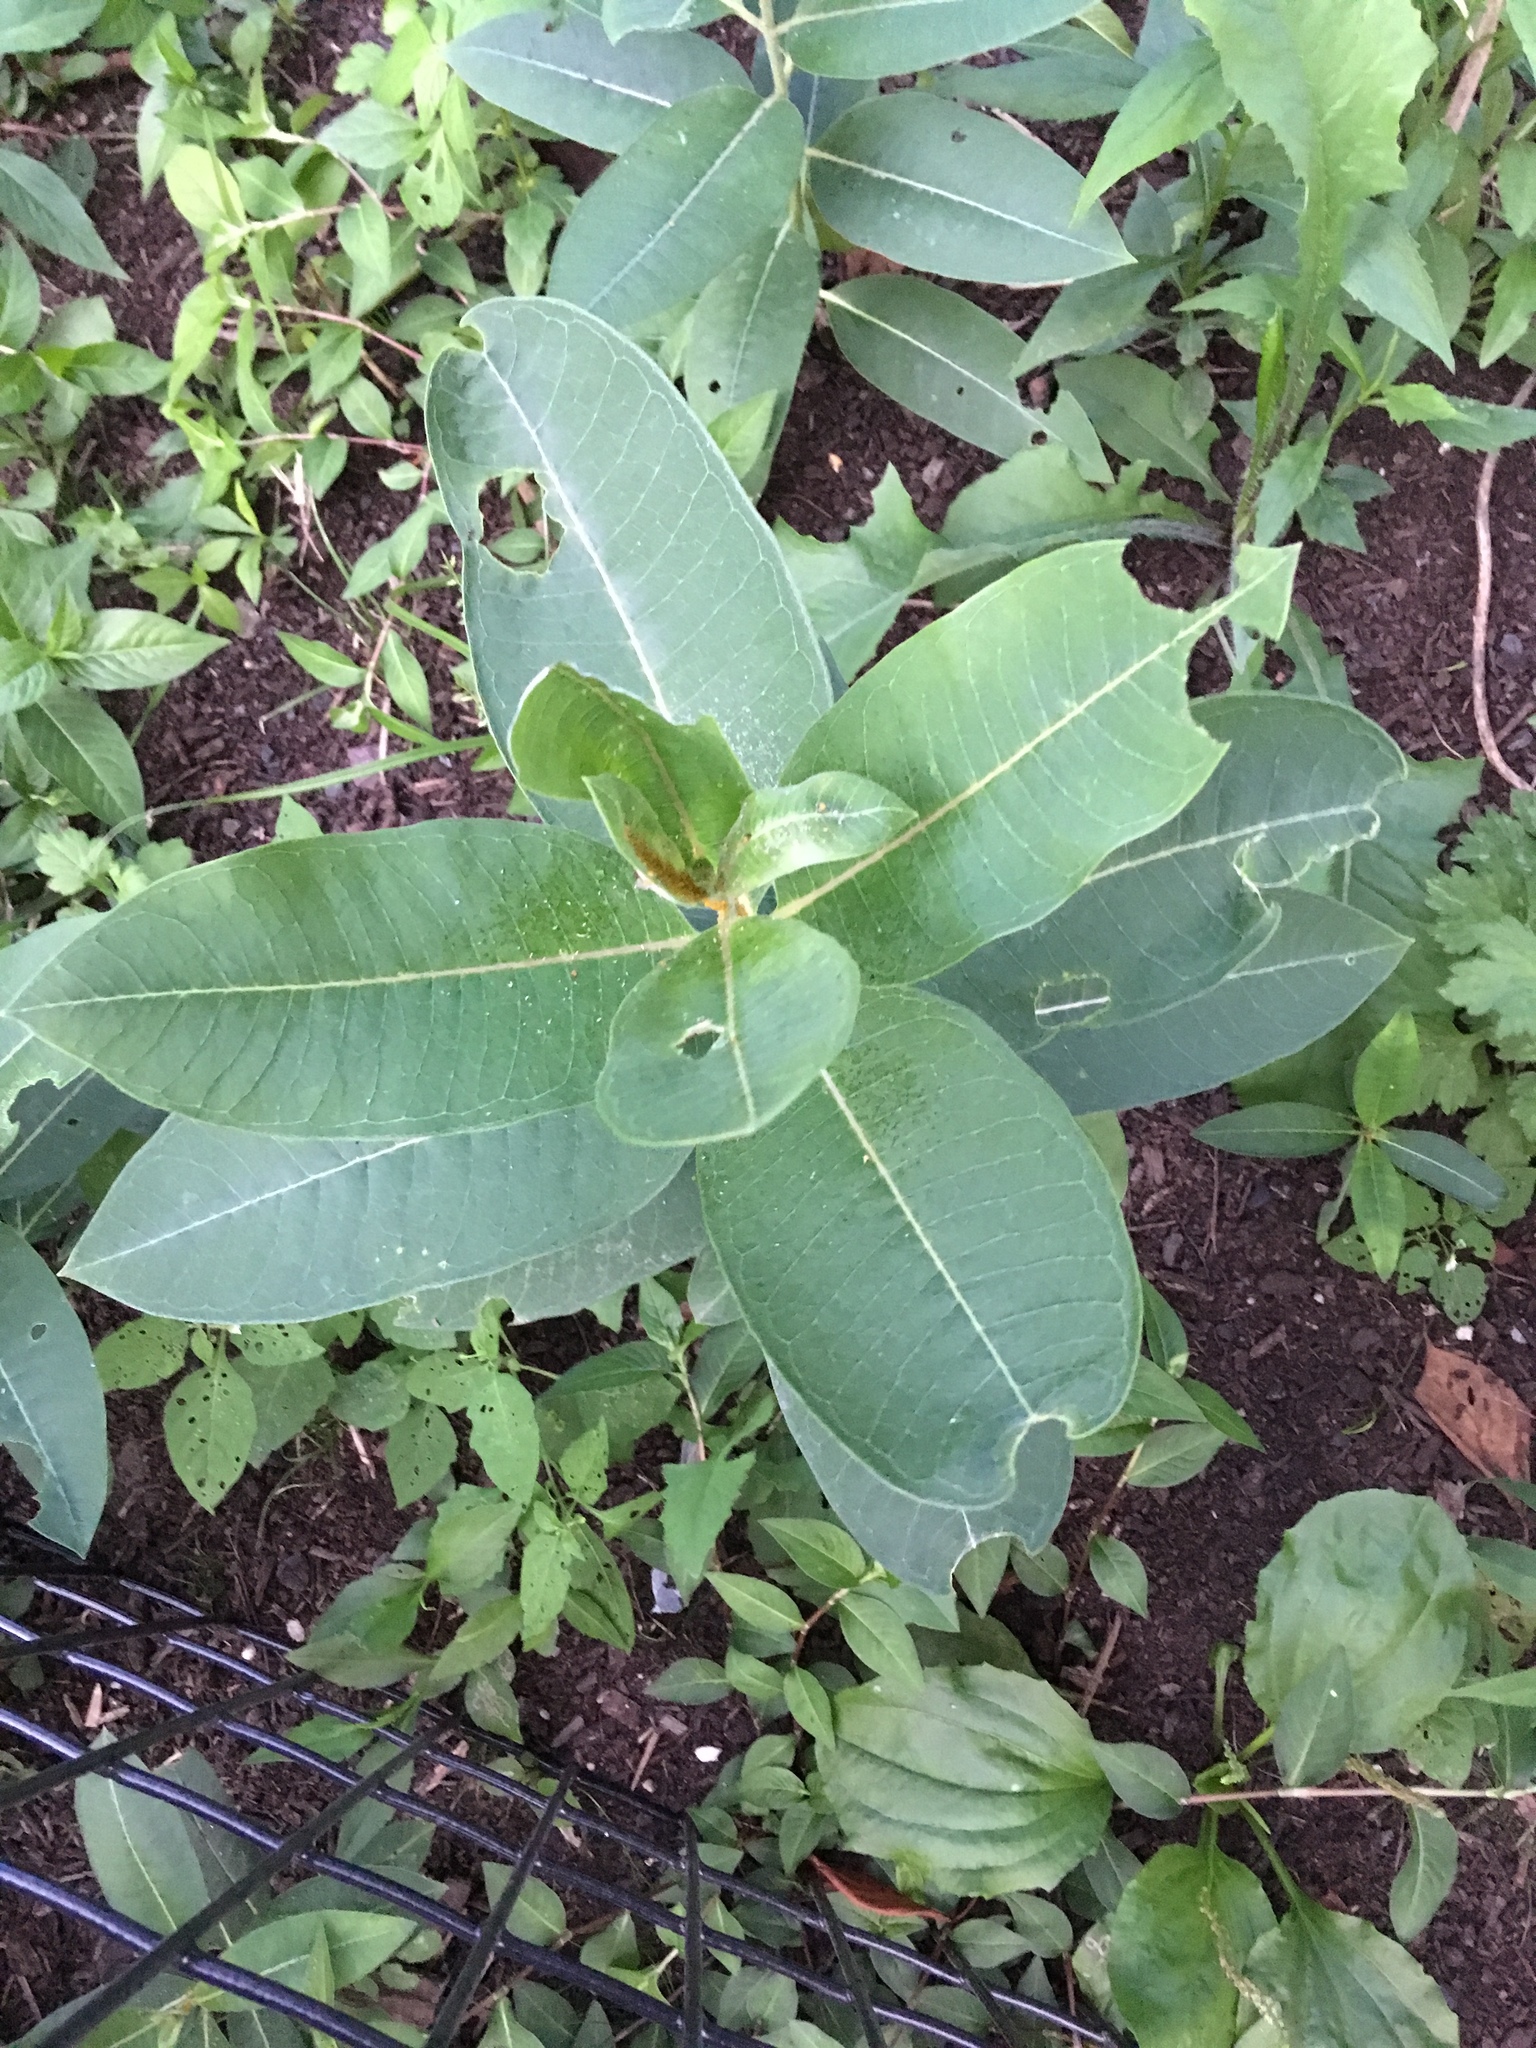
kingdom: Plantae
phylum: Tracheophyta
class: Magnoliopsida
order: Gentianales
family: Apocynaceae
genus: Asclepias
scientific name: Asclepias syriaca
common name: Common milkweed
